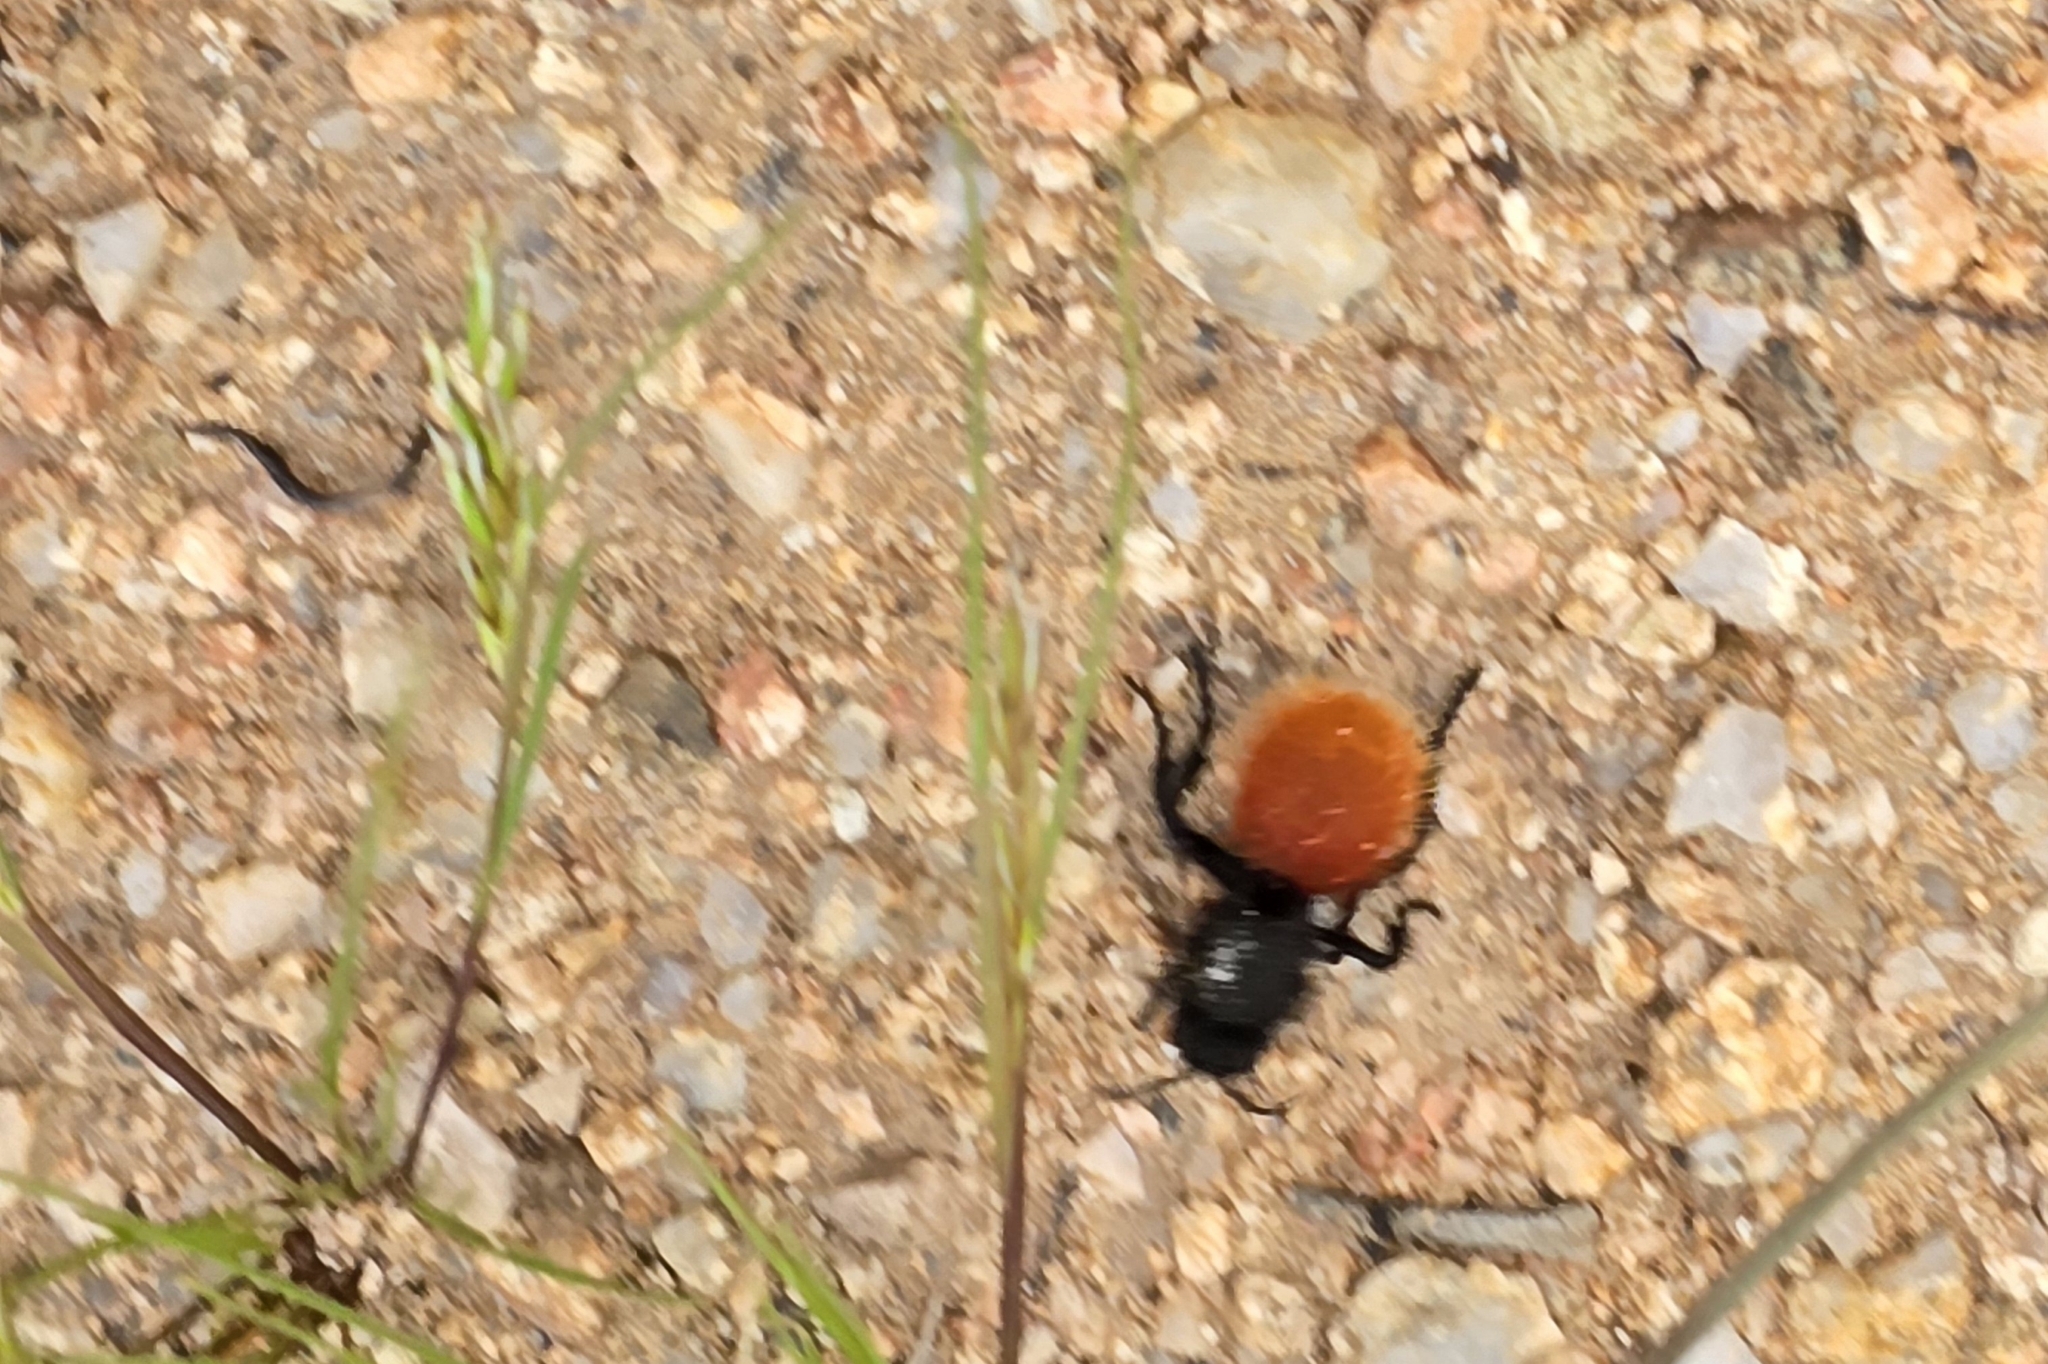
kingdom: Animalia
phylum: Arthropoda
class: Insecta
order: Hymenoptera
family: Mutillidae
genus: Dasymutilla
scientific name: Dasymutilla magnifica
